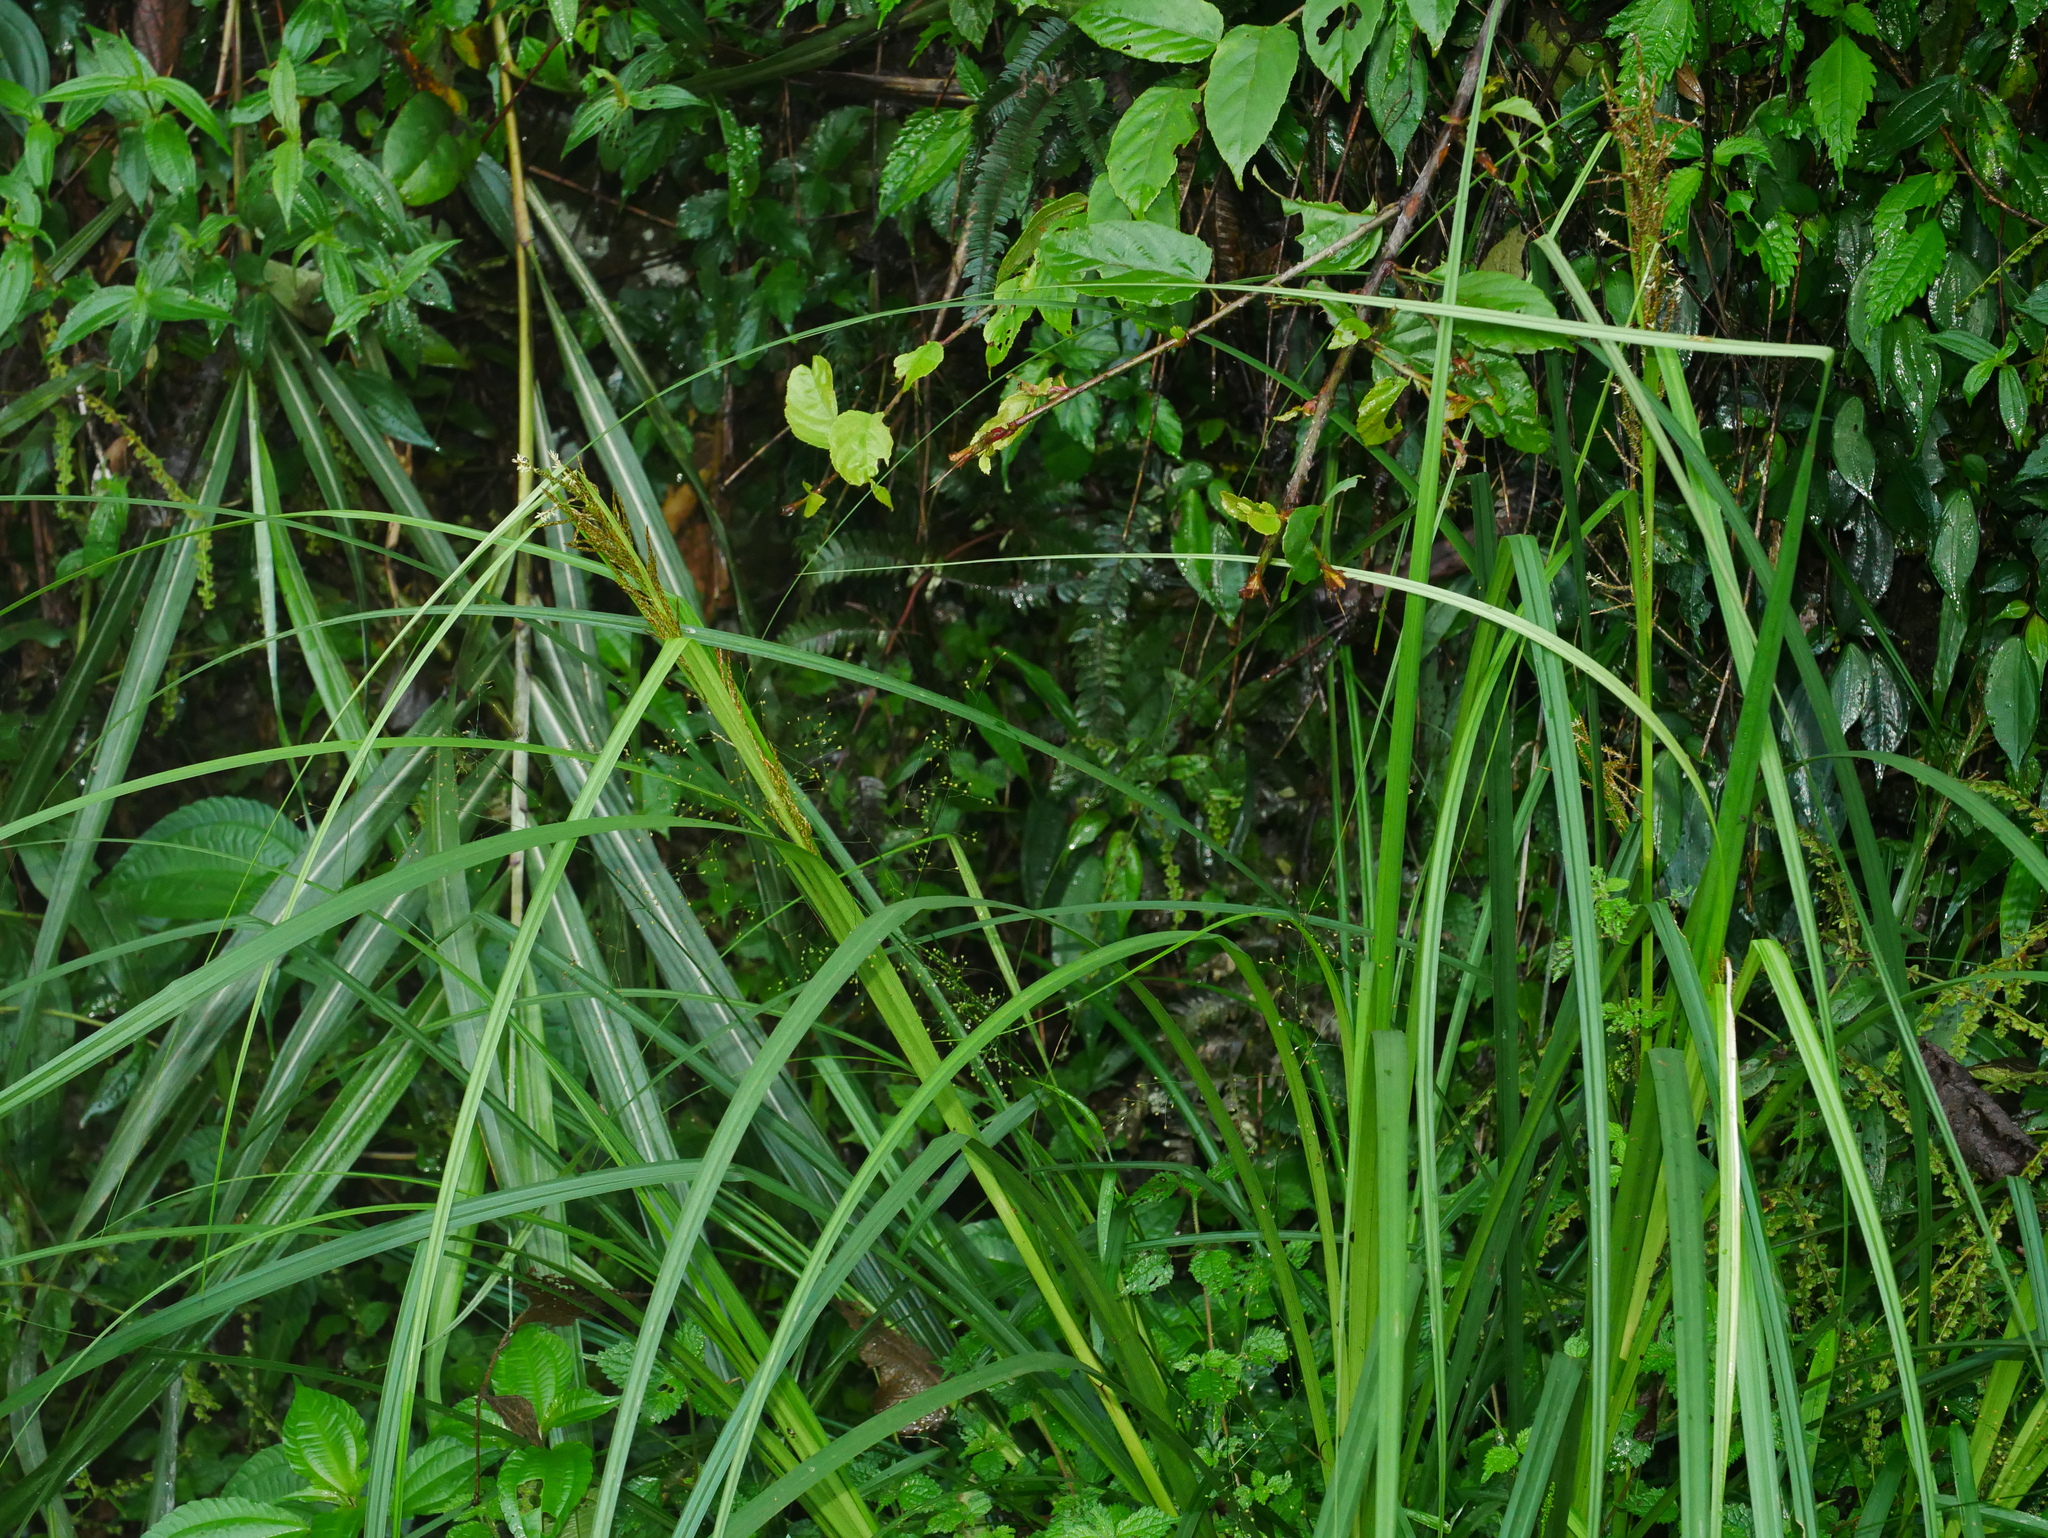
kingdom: Plantae
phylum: Tracheophyta
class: Liliopsida
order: Poales
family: Cyperaceae
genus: Carex
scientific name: Carex baccans
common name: Crimson seeded sedge
